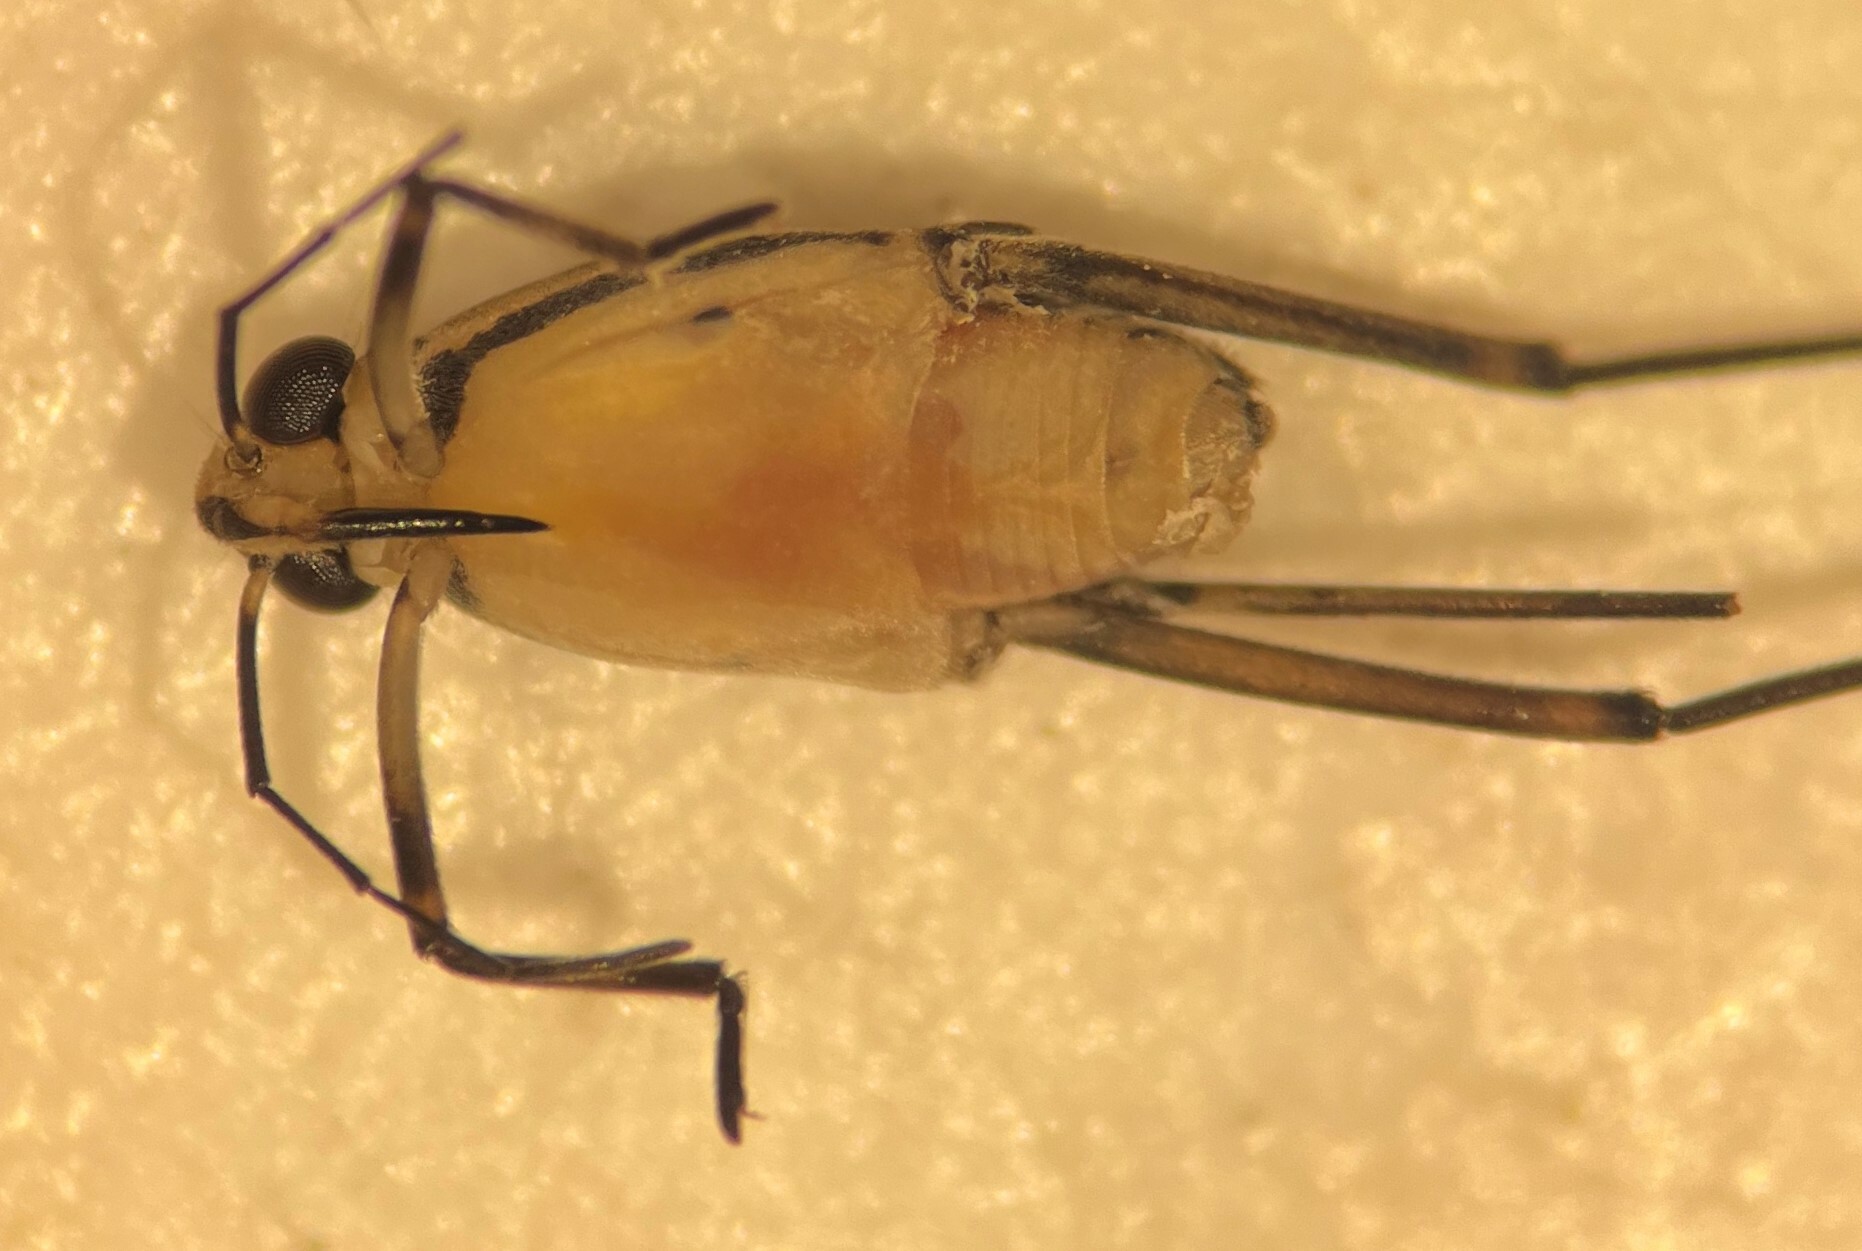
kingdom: Animalia
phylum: Arthropoda
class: Insecta
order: Hemiptera
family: Gerridae
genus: Trepobates
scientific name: Trepobates subnitidus
